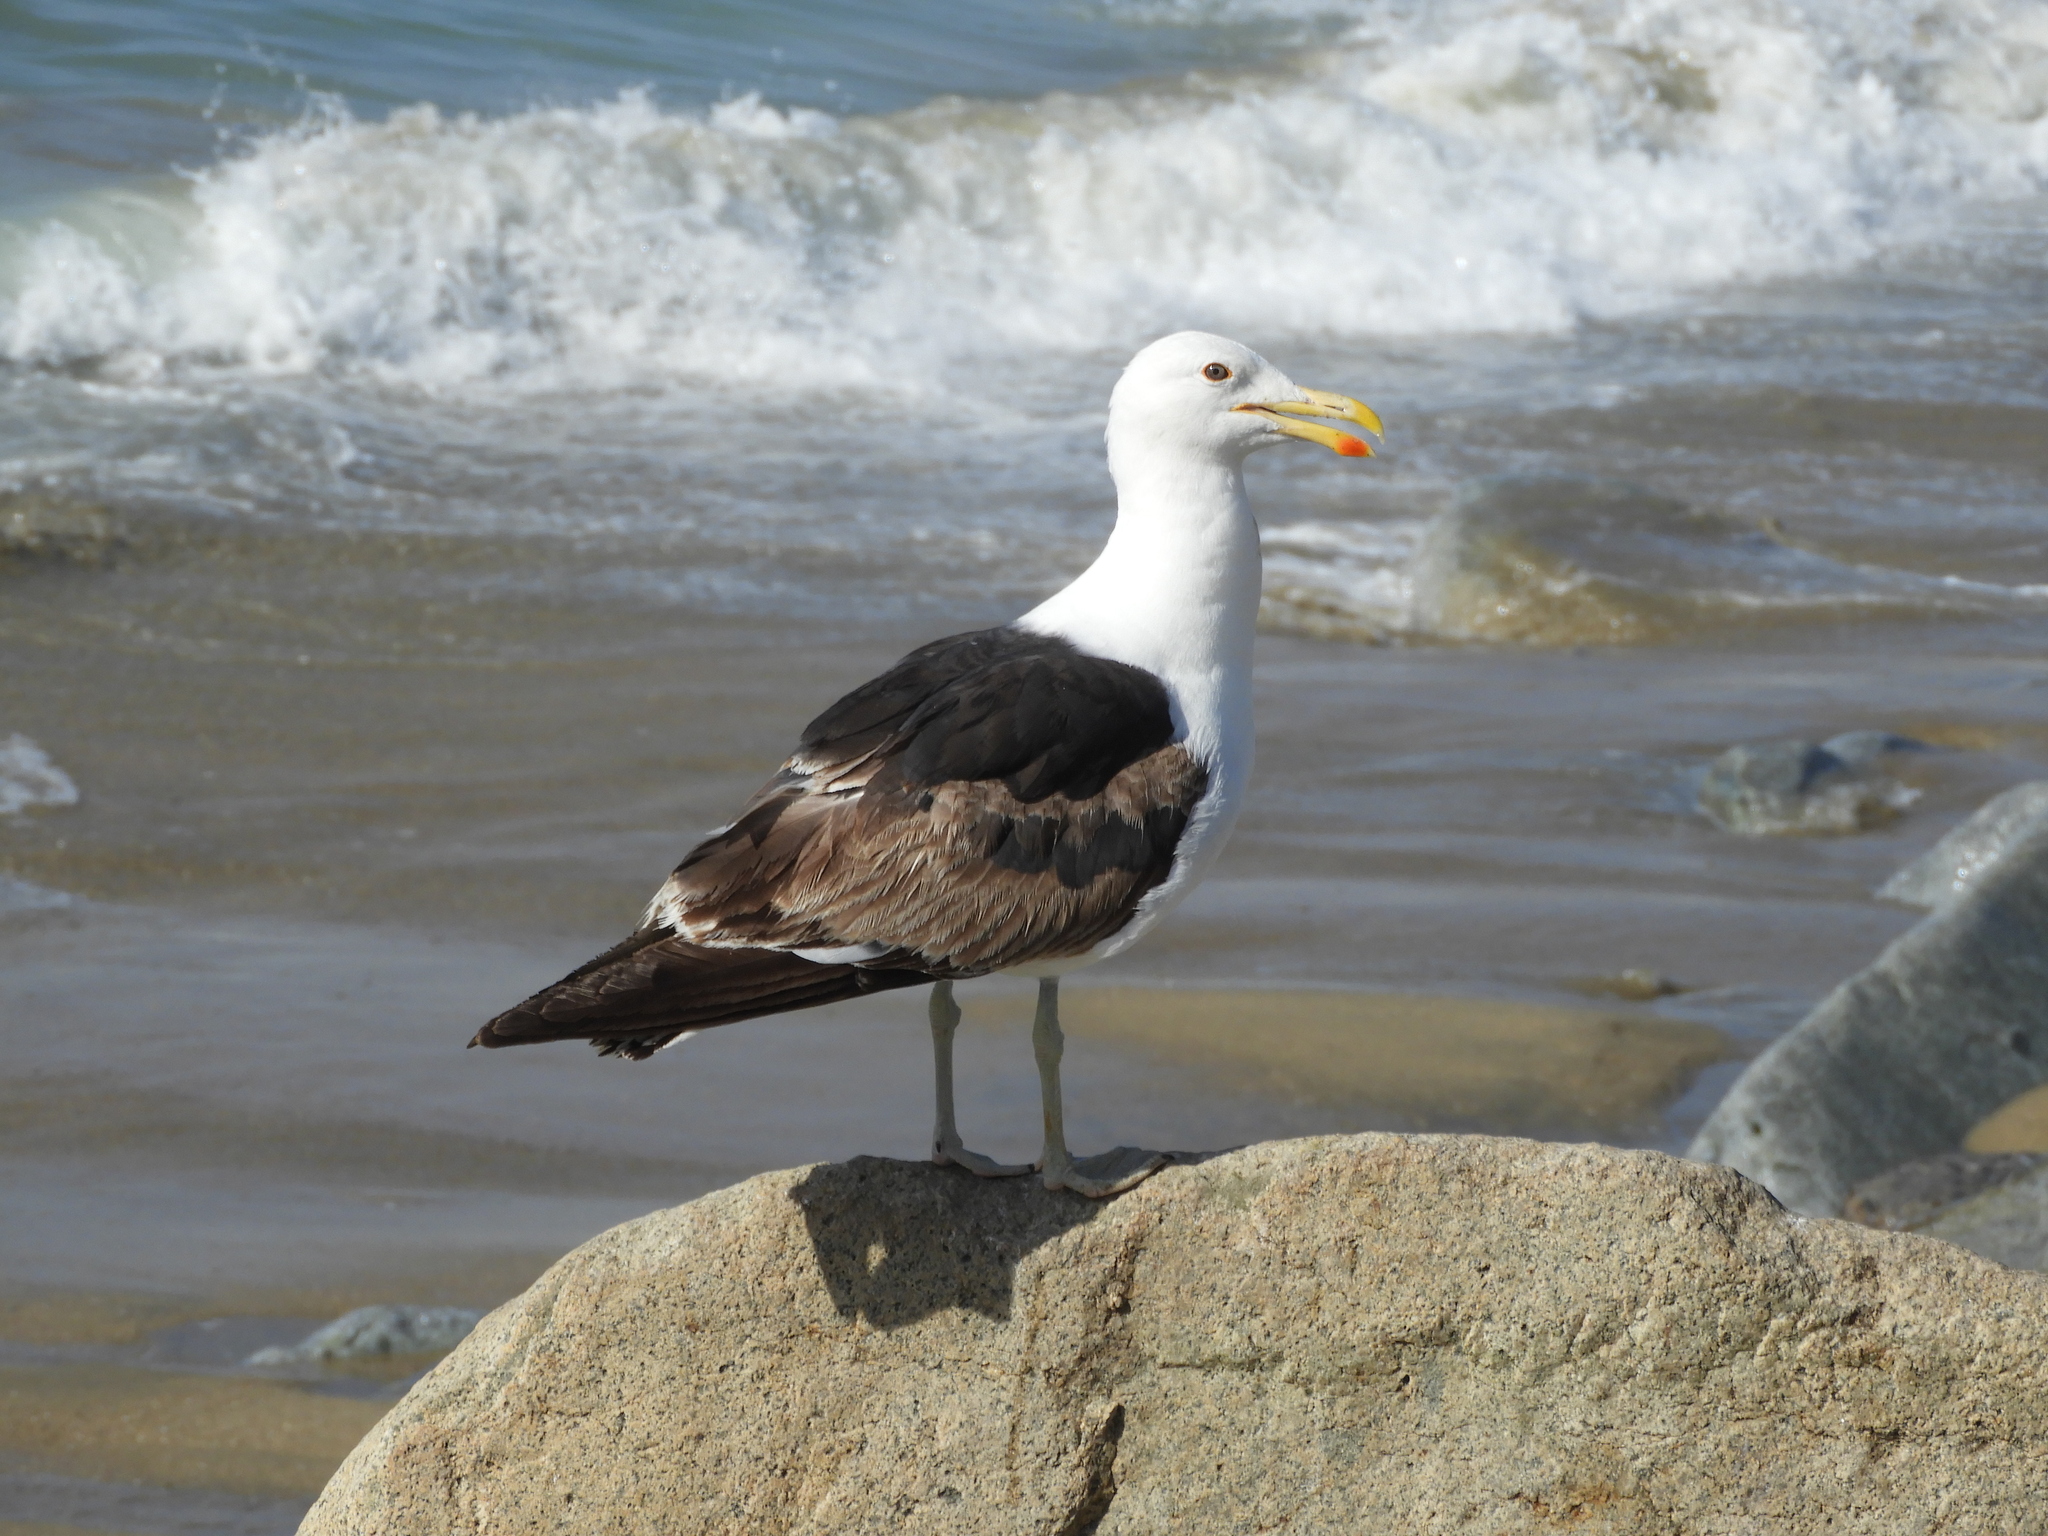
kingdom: Animalia
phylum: Chordata
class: Aves
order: Charadriiformes
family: Laridae
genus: Larus
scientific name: Larus dominicanus
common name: Kelp gull
